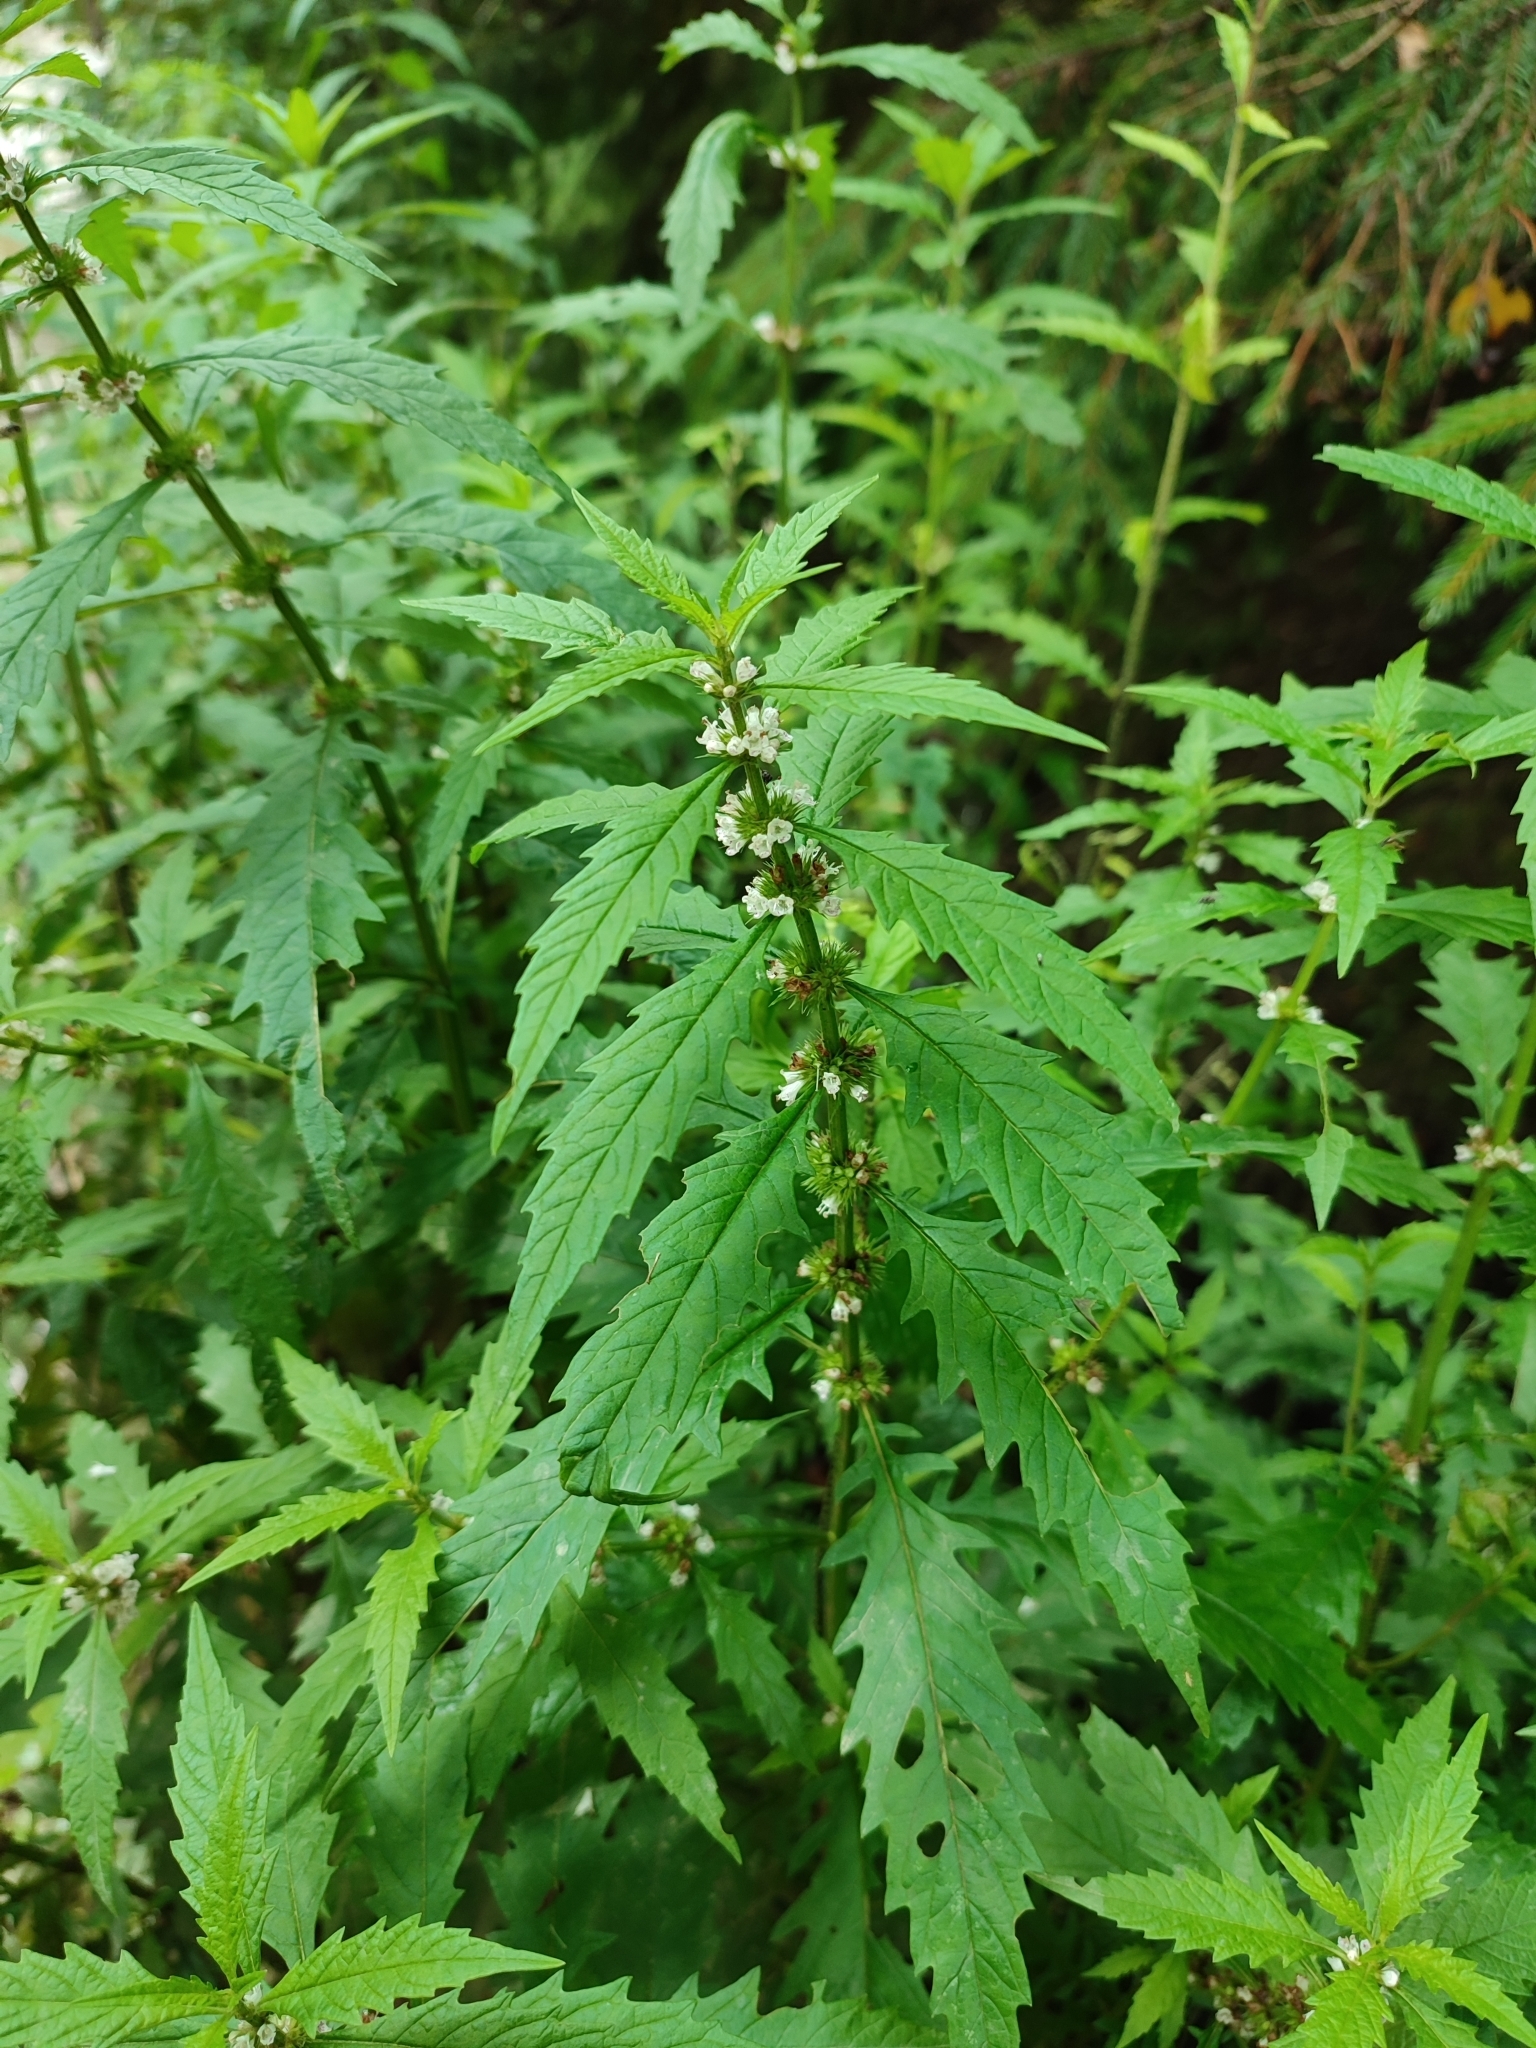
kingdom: Plantae
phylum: Tracheophyta
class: Magnoliopsida
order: Lamiales
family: Lamiaceae
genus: Lycopus
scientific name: Lycopus europaeus
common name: European bugleweed
